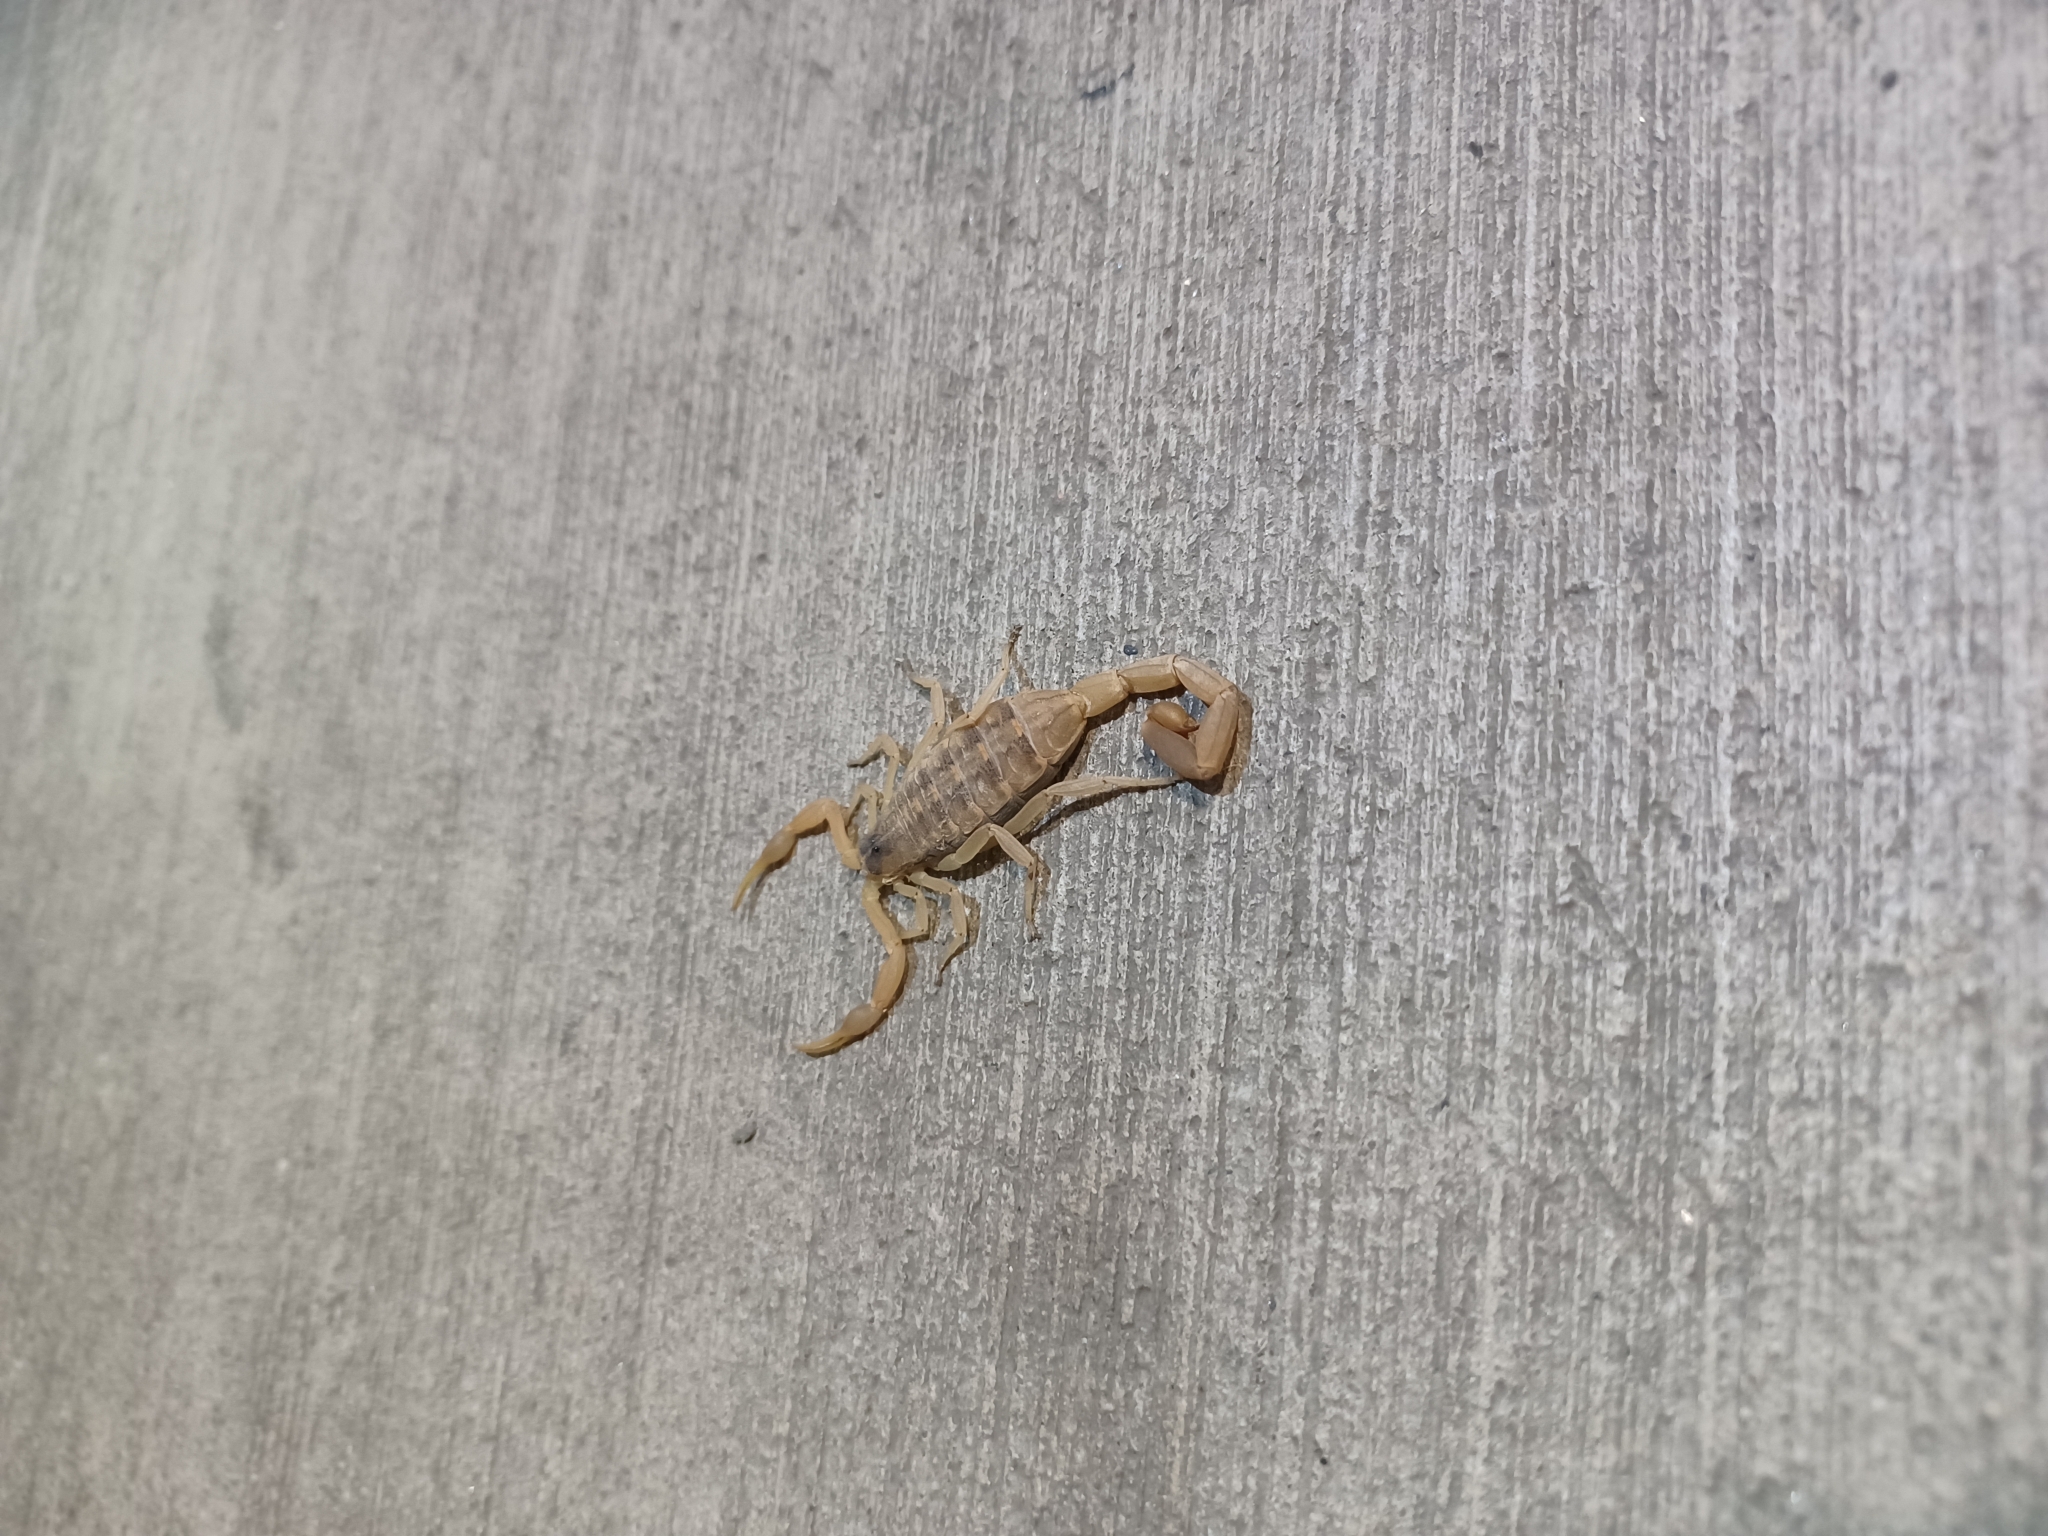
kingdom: Animalia
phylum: Arthropoda
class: Arachnida
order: Scorpiones
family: Buthidae
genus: Centruroides
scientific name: Centruroides vittatus
